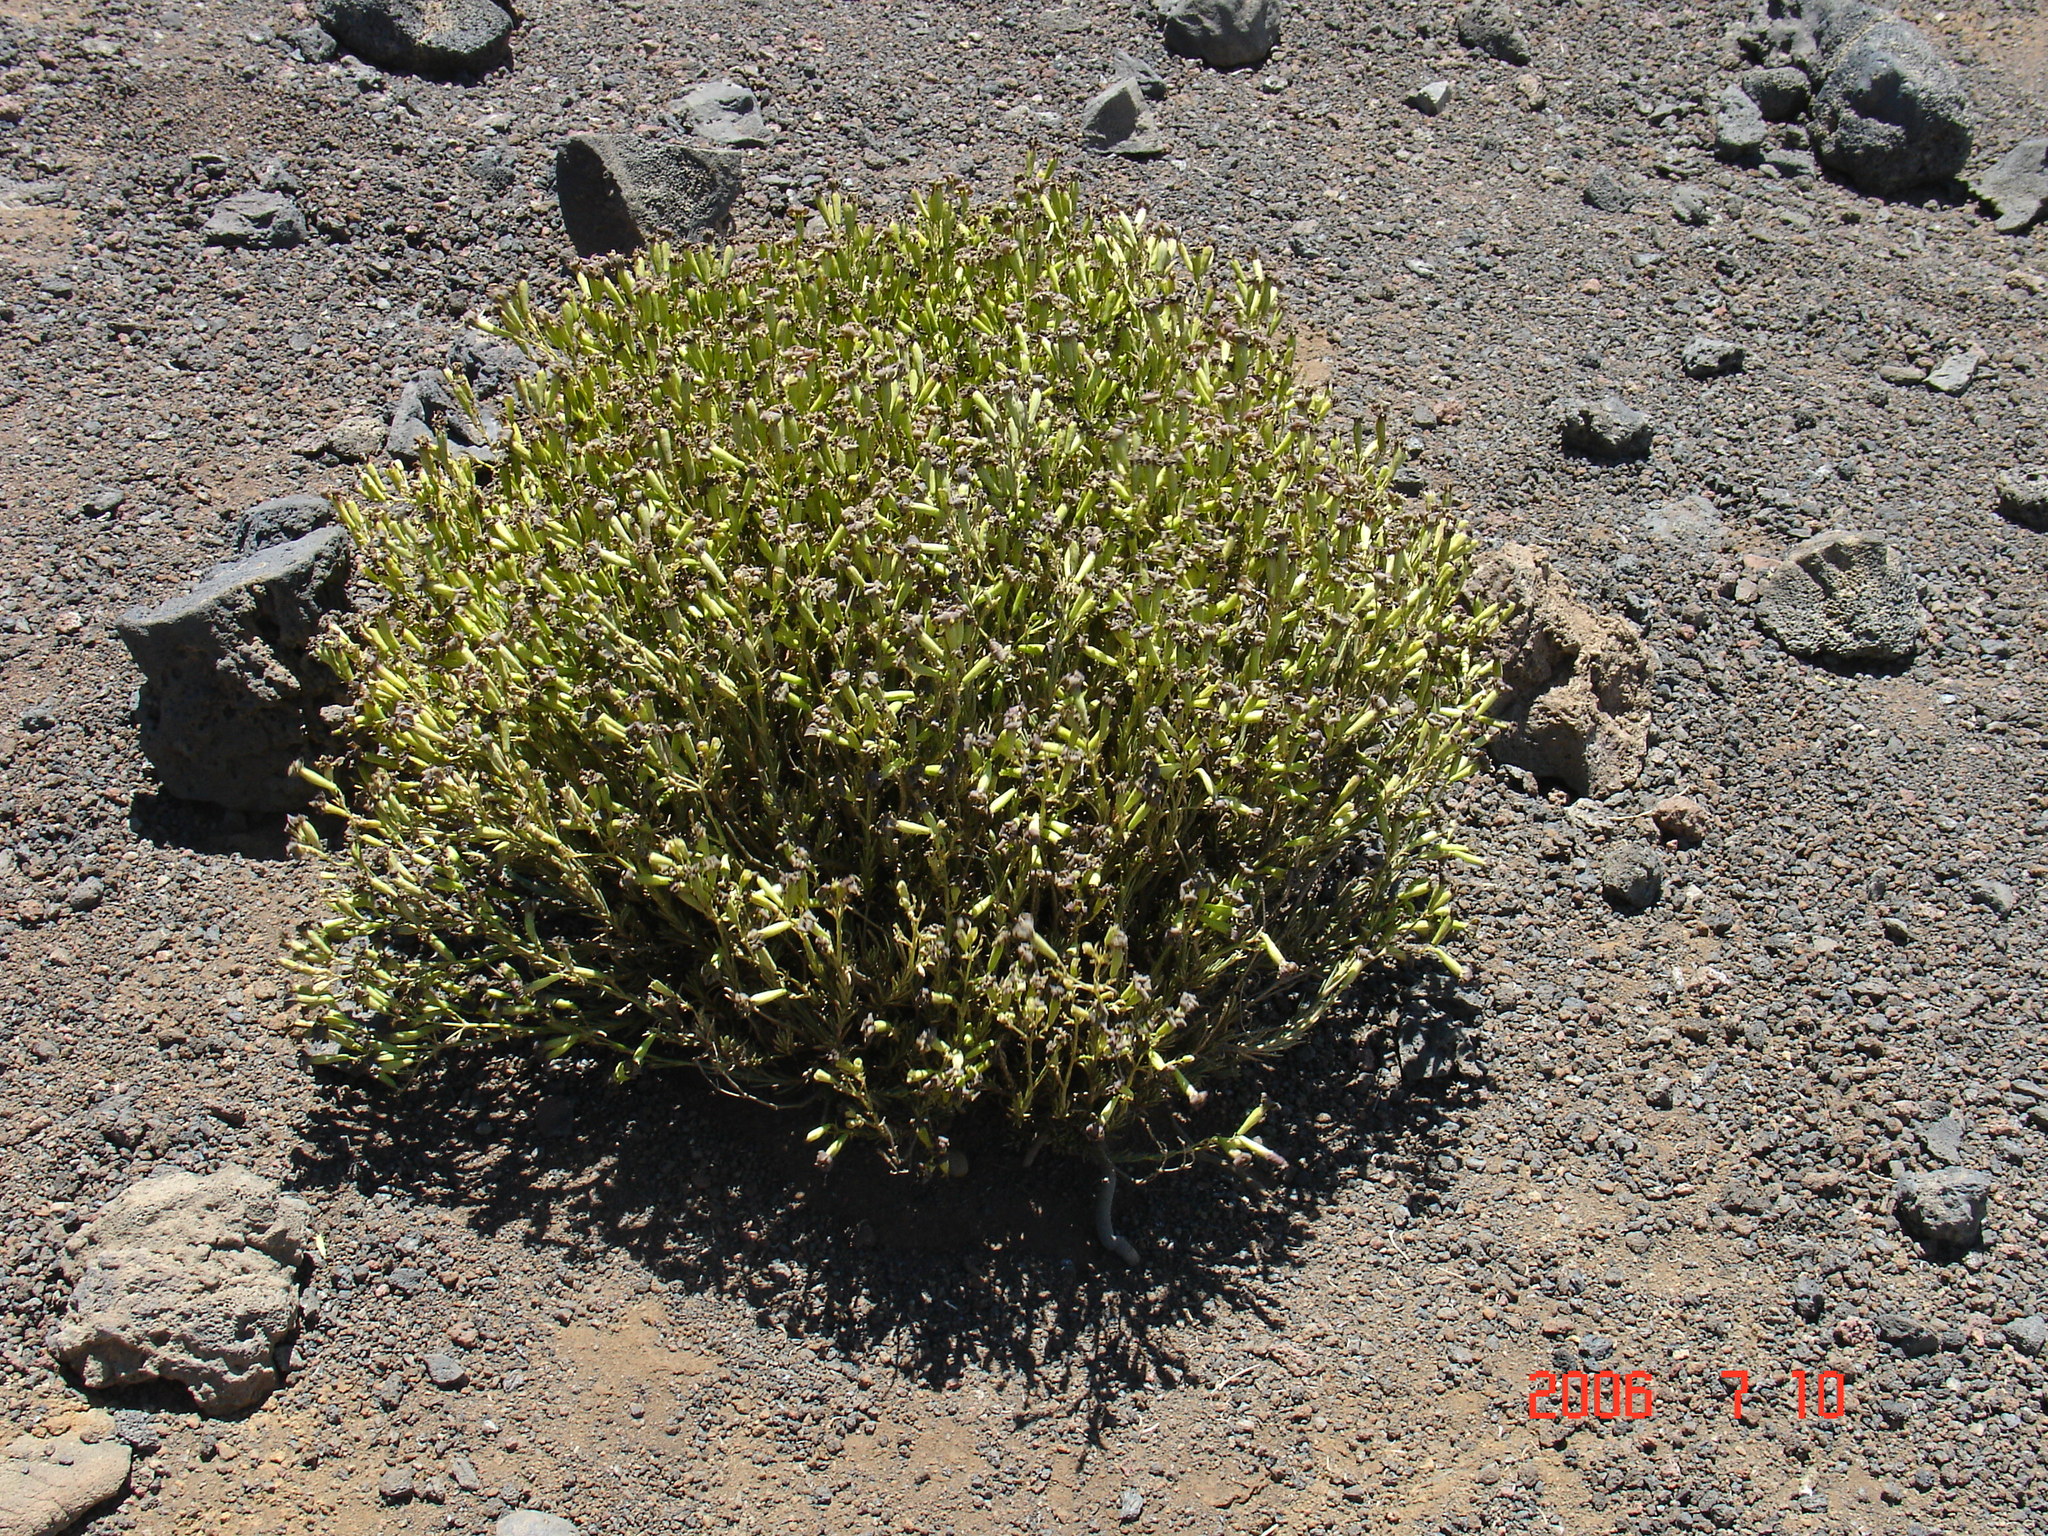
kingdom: Plantae
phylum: Tracheophyta
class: Magnoliopsida
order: Caryophyllales
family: Caryophyllaceae
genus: Silene
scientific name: Silene struthioloides
